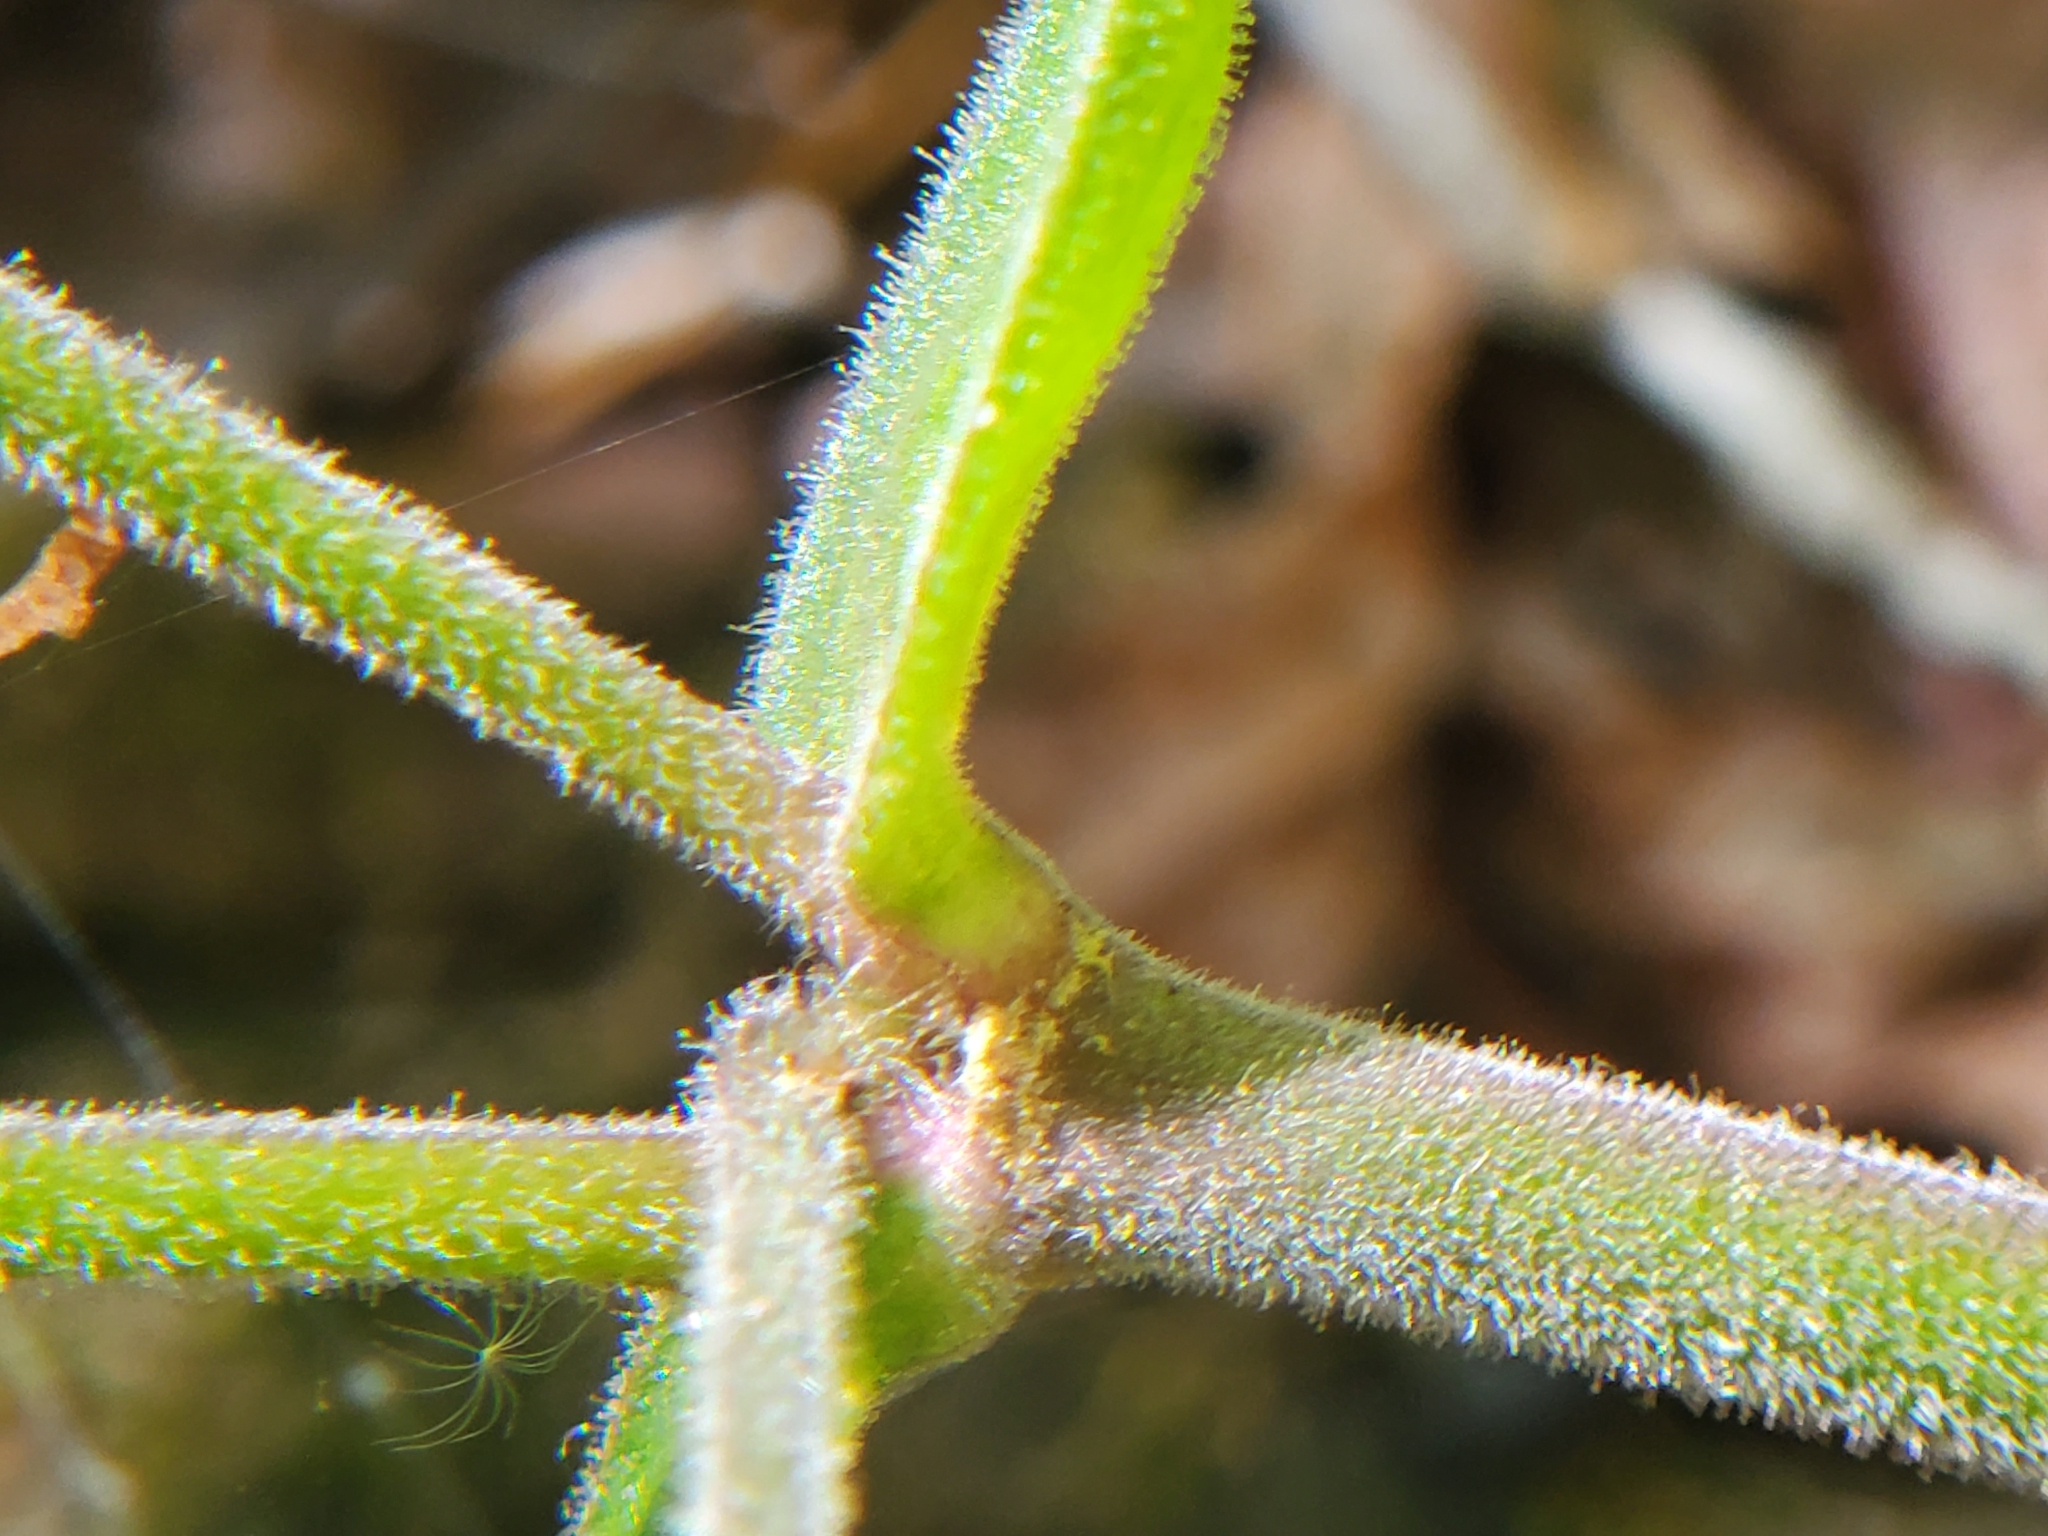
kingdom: Plantae
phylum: Tracheophyta
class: Magnoliopsida
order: Caryophyllales
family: Caryophyllaceae
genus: Silene
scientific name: Silene virginica
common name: Fire-pink
